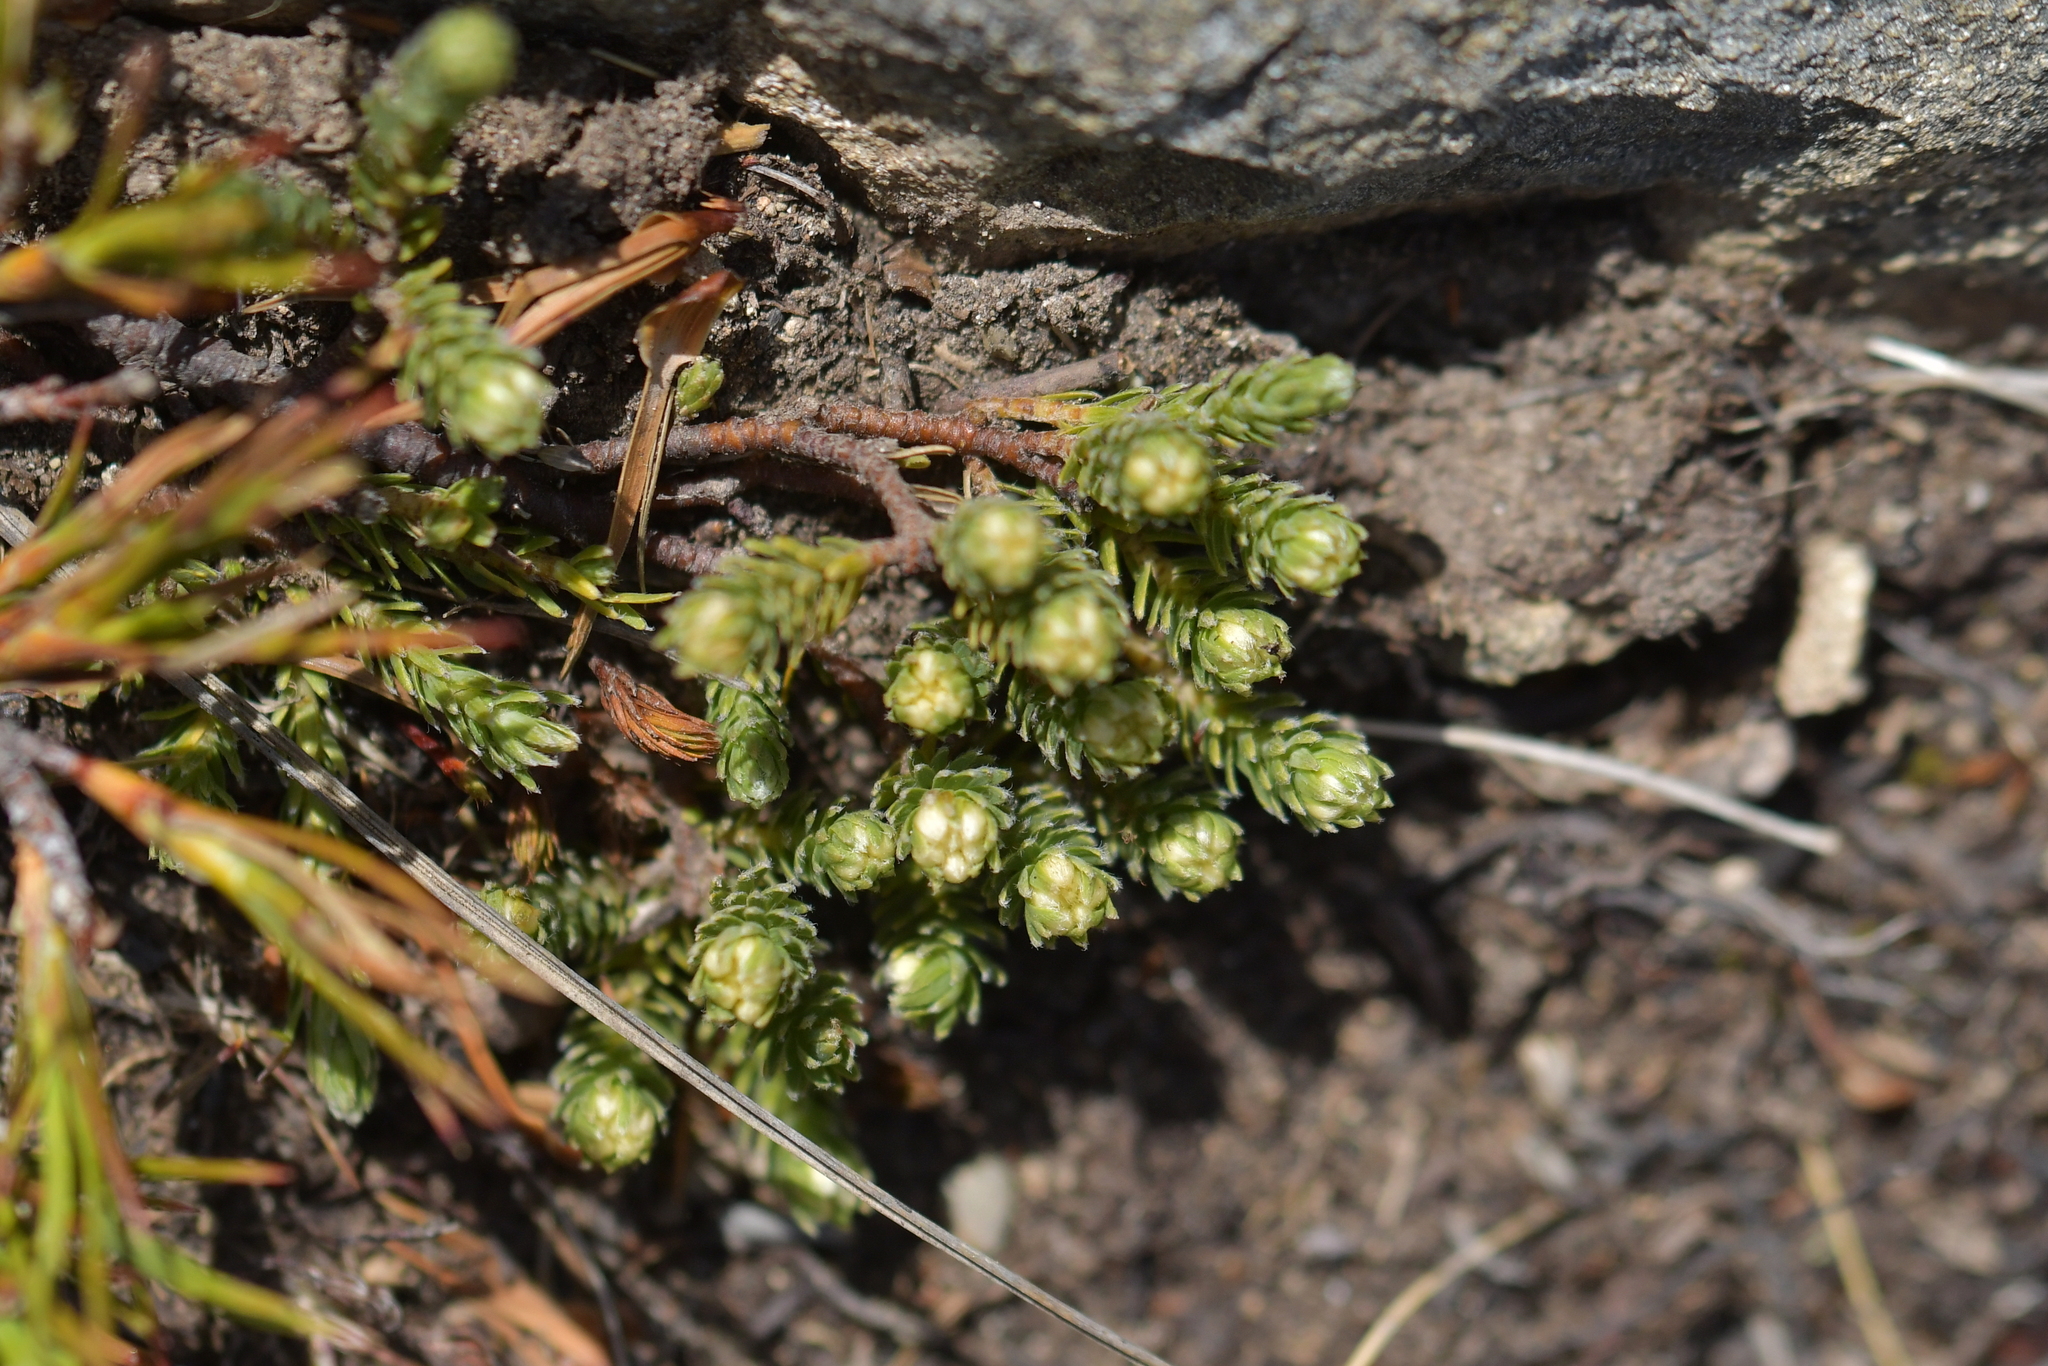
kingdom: Plantae
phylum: Tracheophyta
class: Magnoliopsida
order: Malvales
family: Thymelaeaceae
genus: Kelleria
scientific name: Kelleria dieffenbachii
